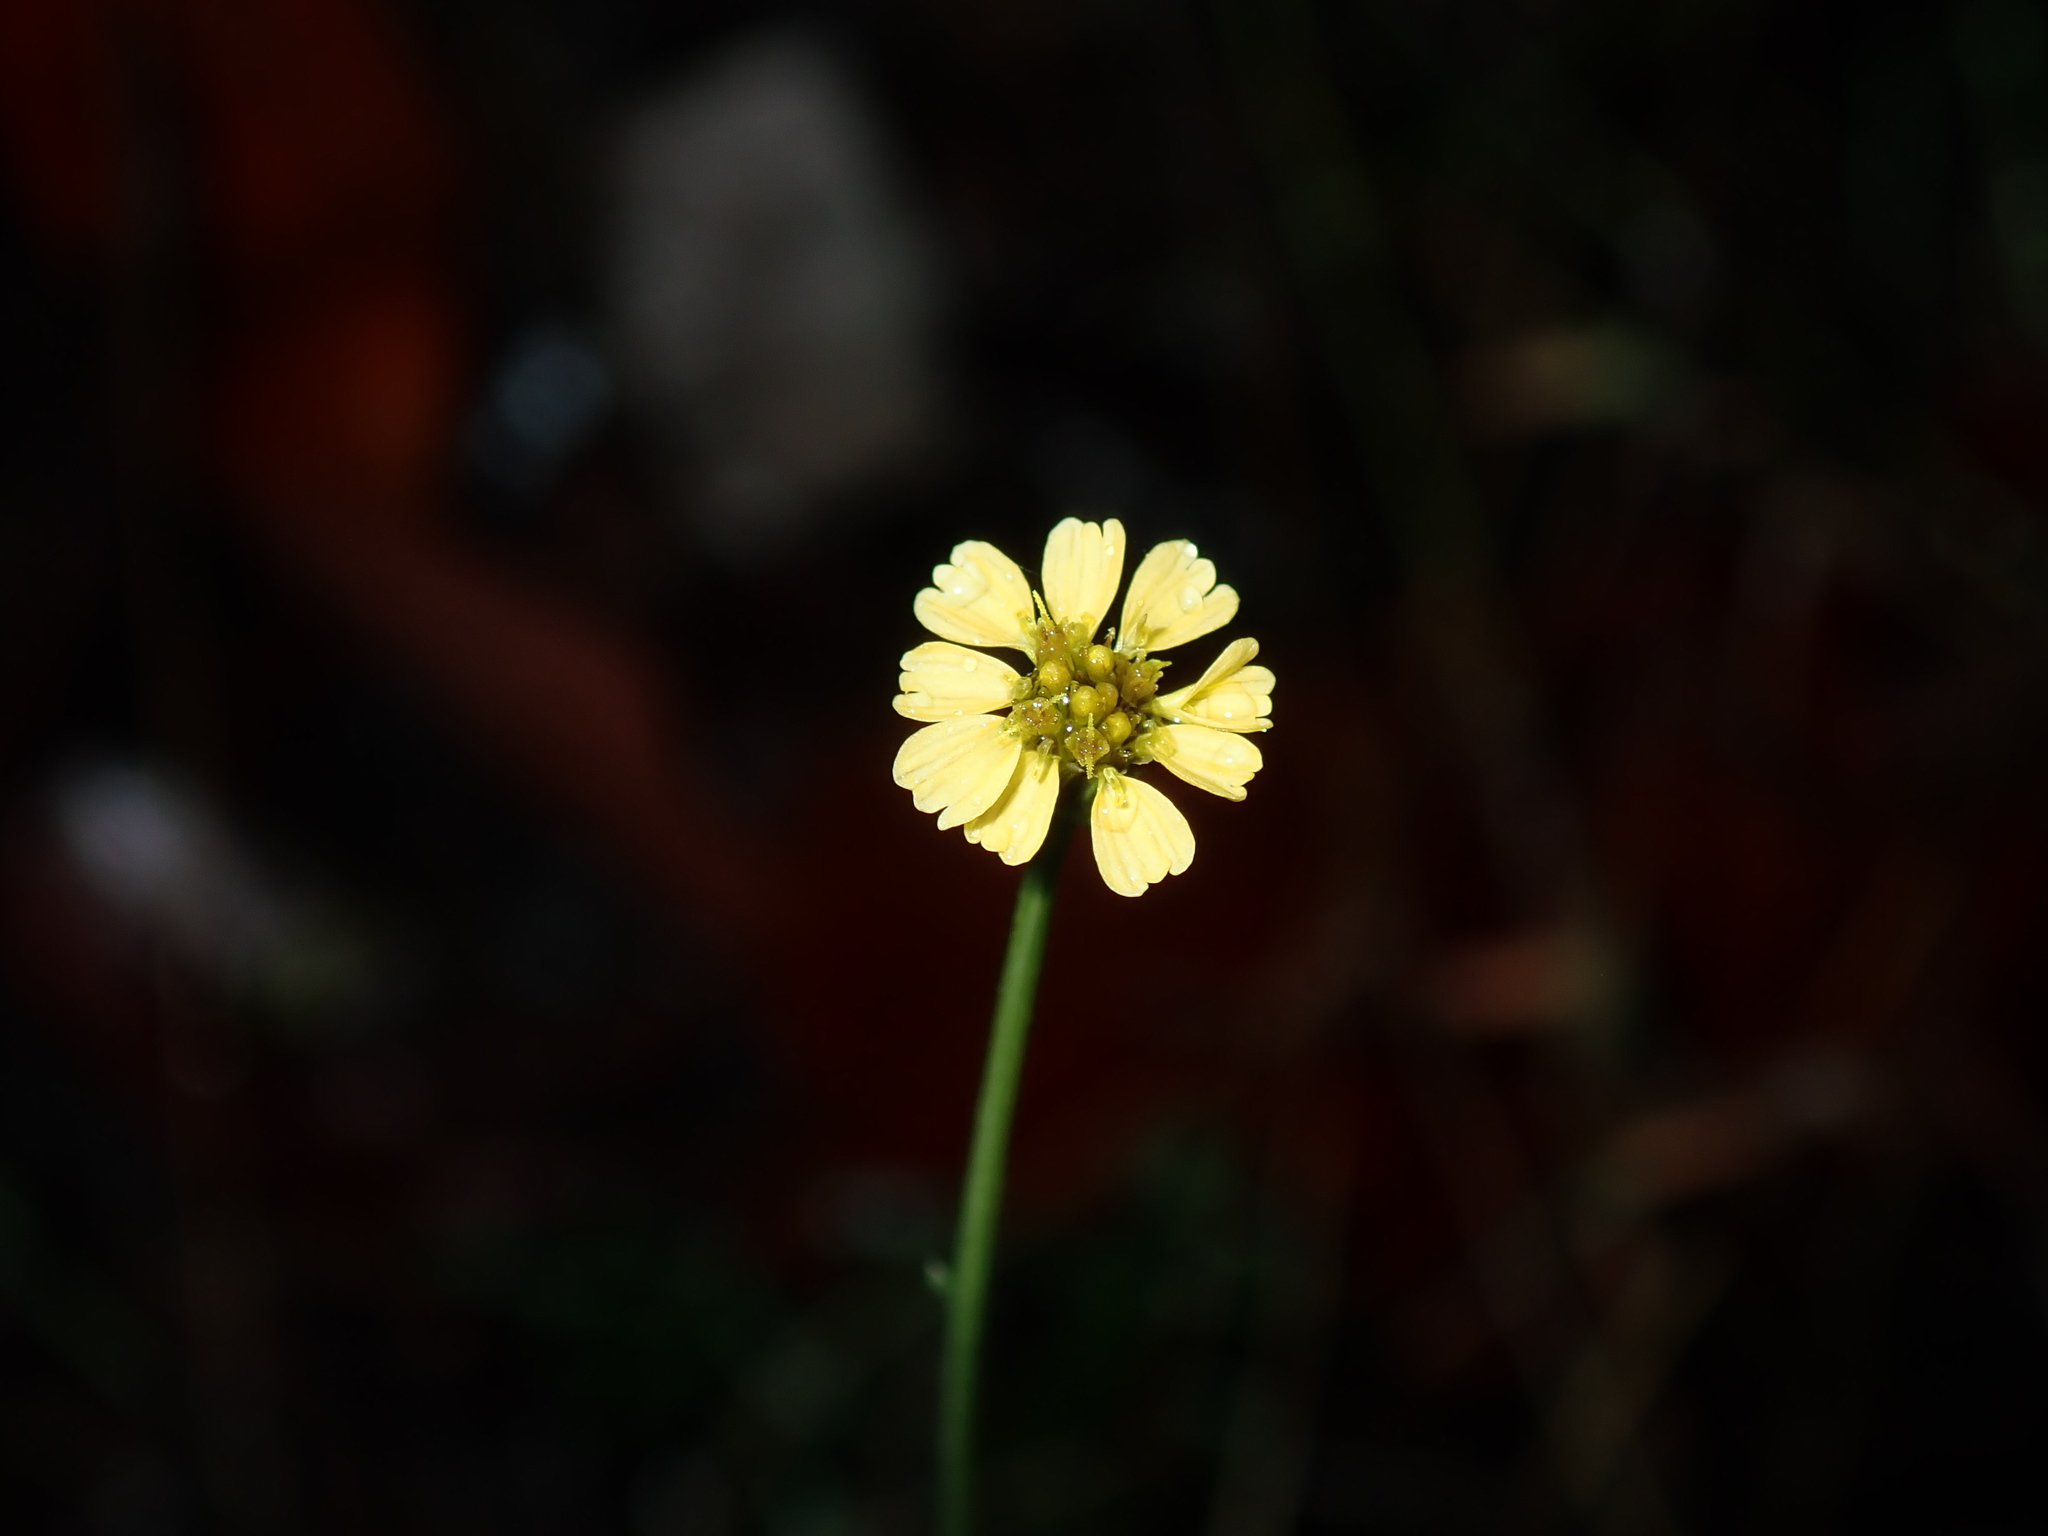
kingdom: Plantae
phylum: Tracheophyta
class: Magnoliopsida
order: Asterales
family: Asteraceae
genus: Glossocardia
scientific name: Glossocardia bidens
